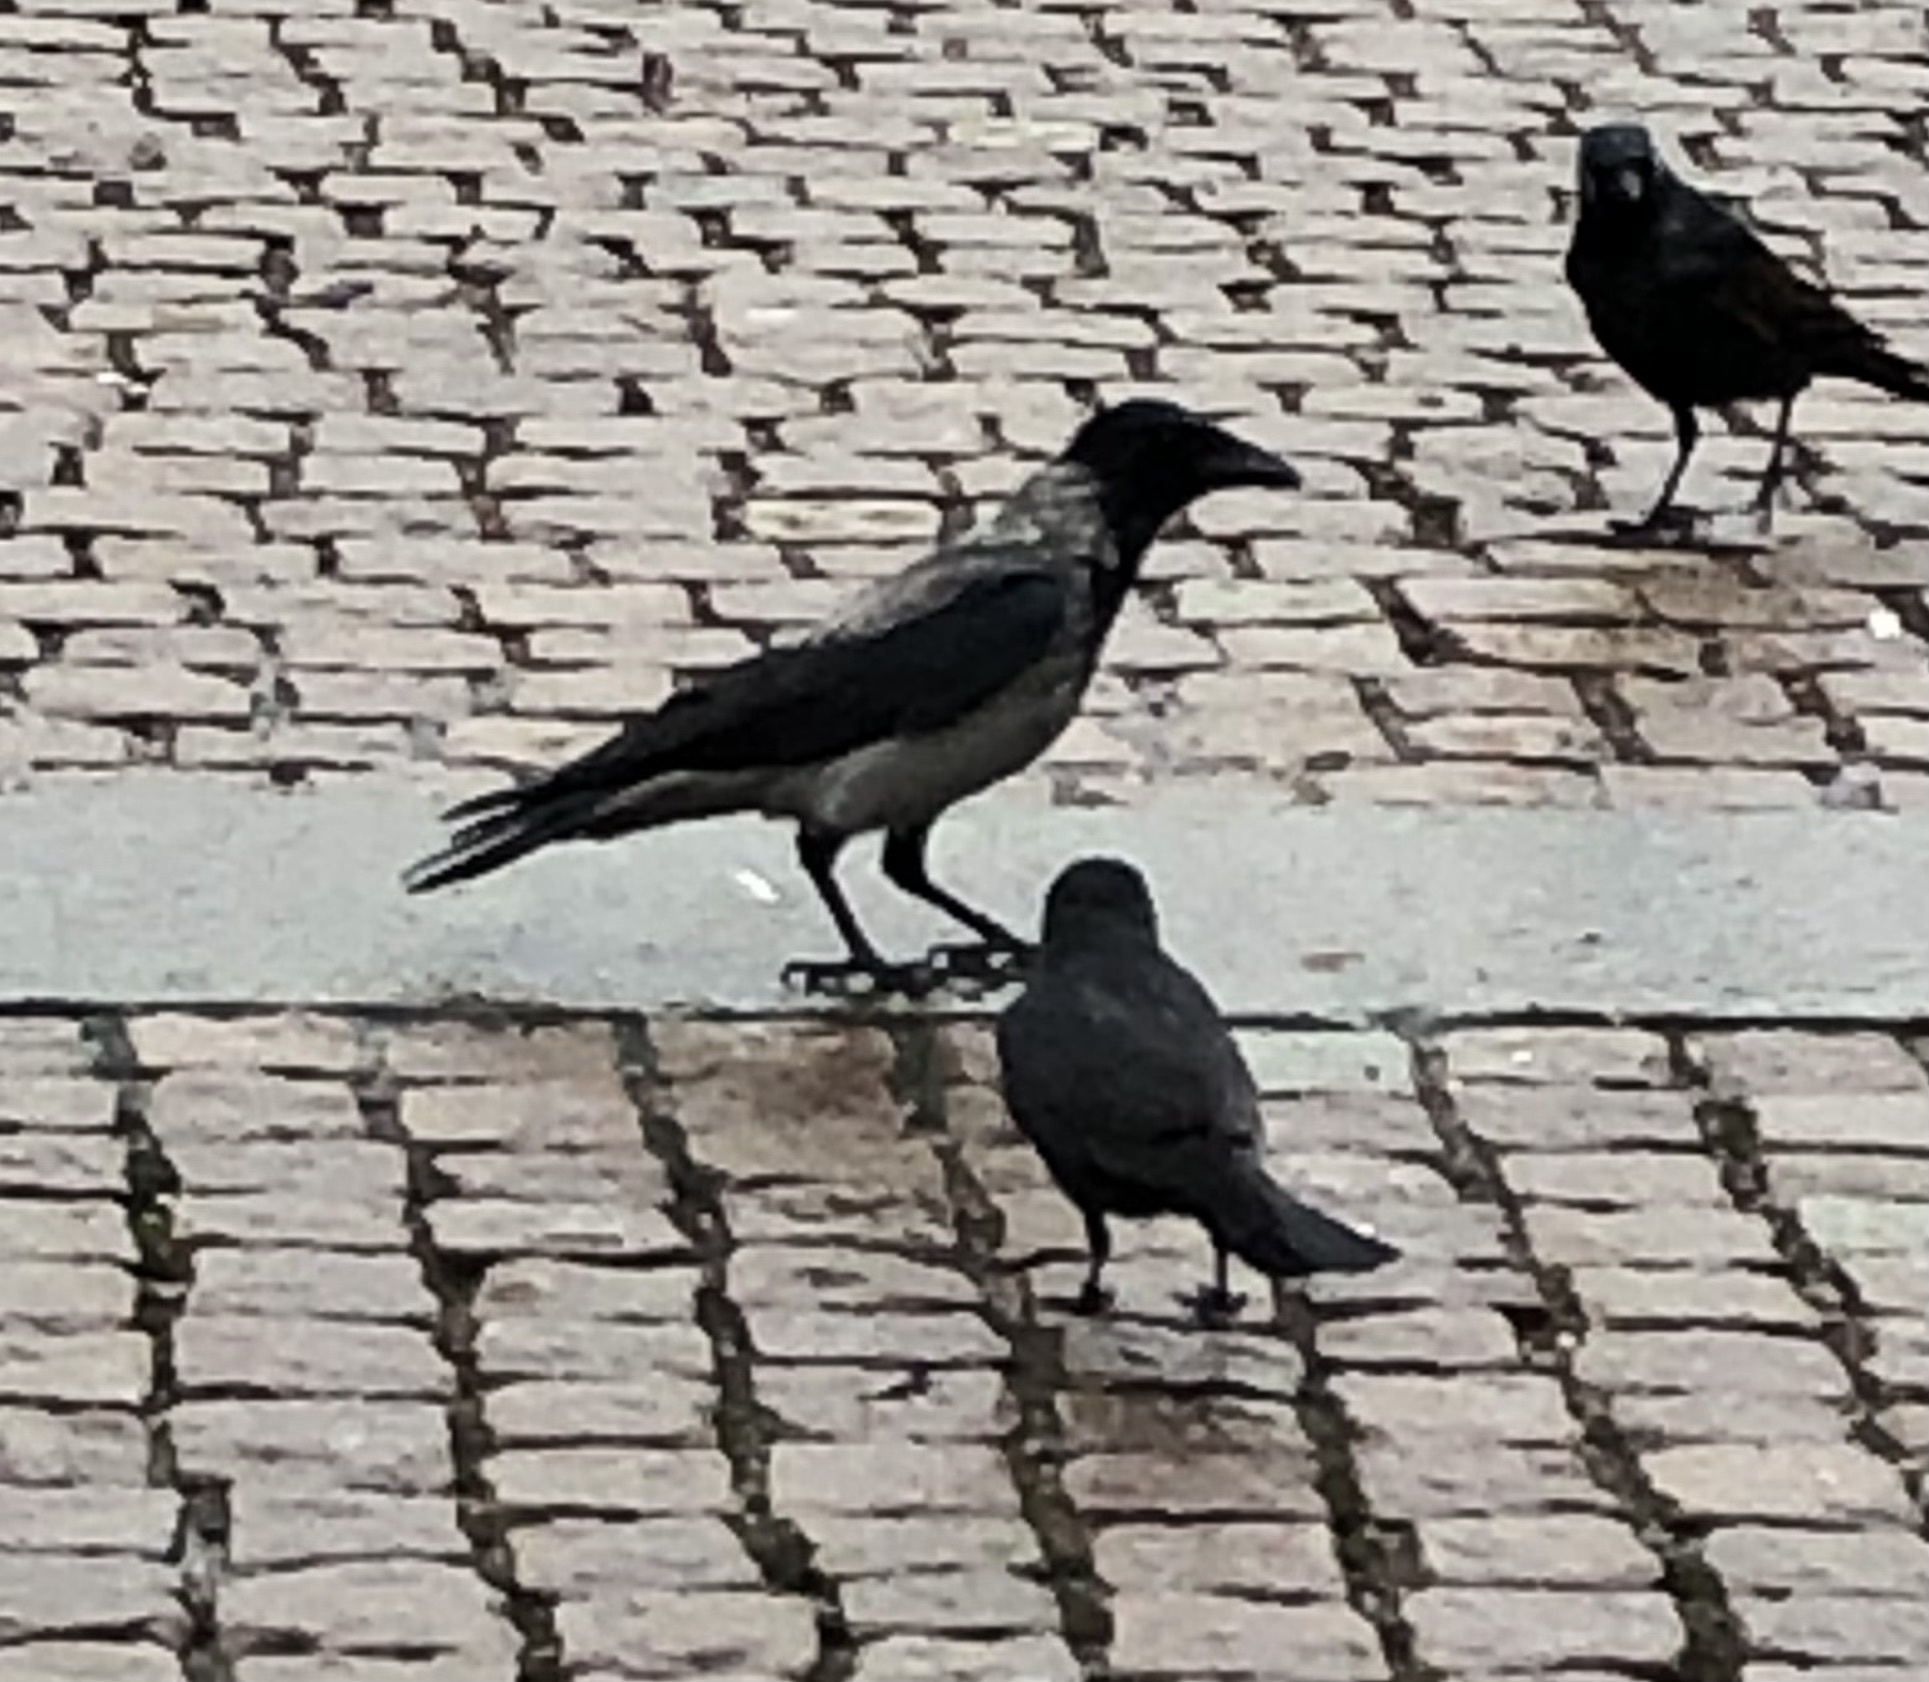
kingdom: Animalia
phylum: Chordata
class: Aves
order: Passeriformes
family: Corvidae
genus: Corvus
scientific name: Corvus cornix
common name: Hooded crow
